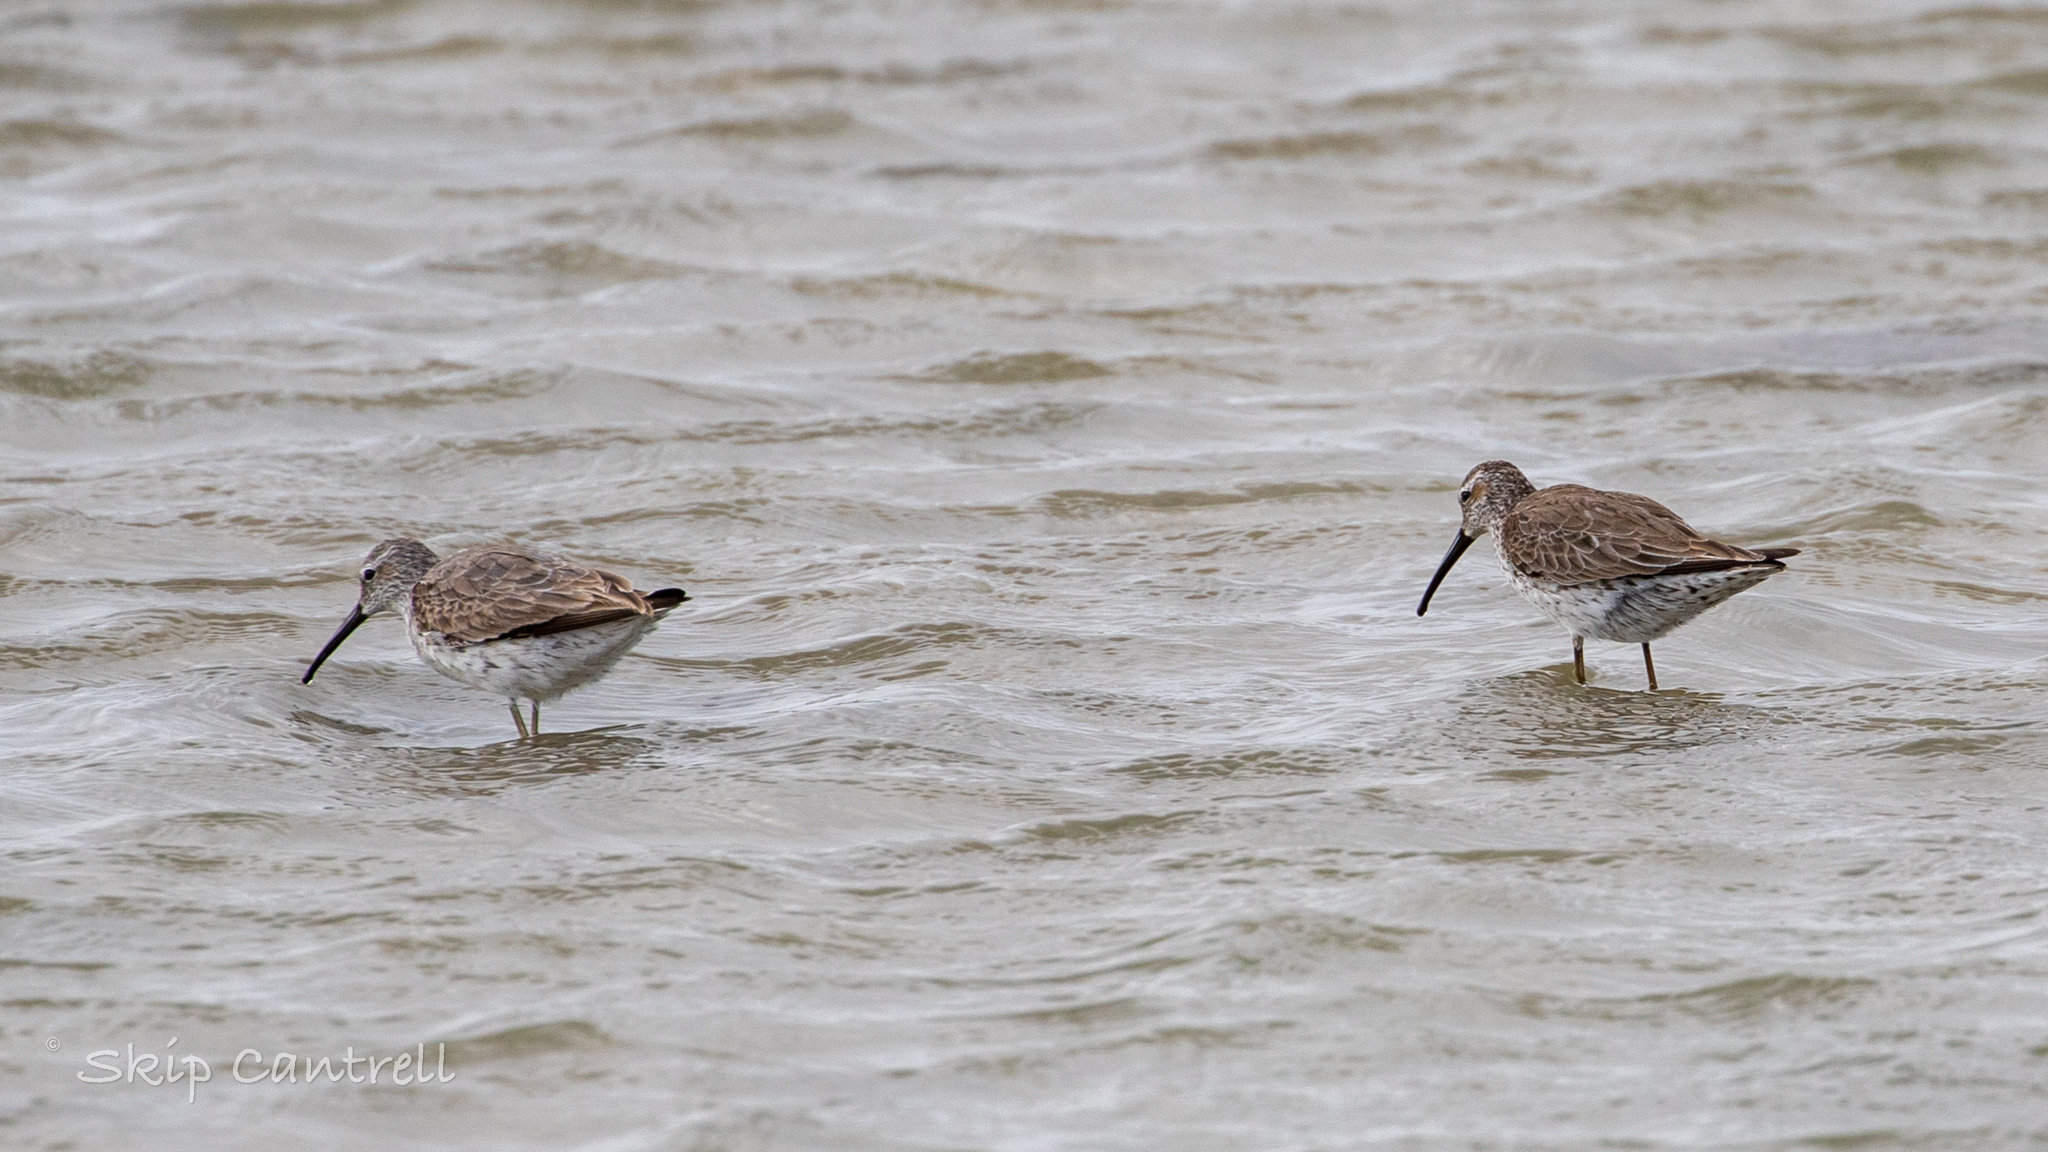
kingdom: Animalia
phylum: Chordata
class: Aves
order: Charadriiformes
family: Scolopacidae
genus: Calidris
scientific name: Calidris himantopus
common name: Stilt sandpiper
